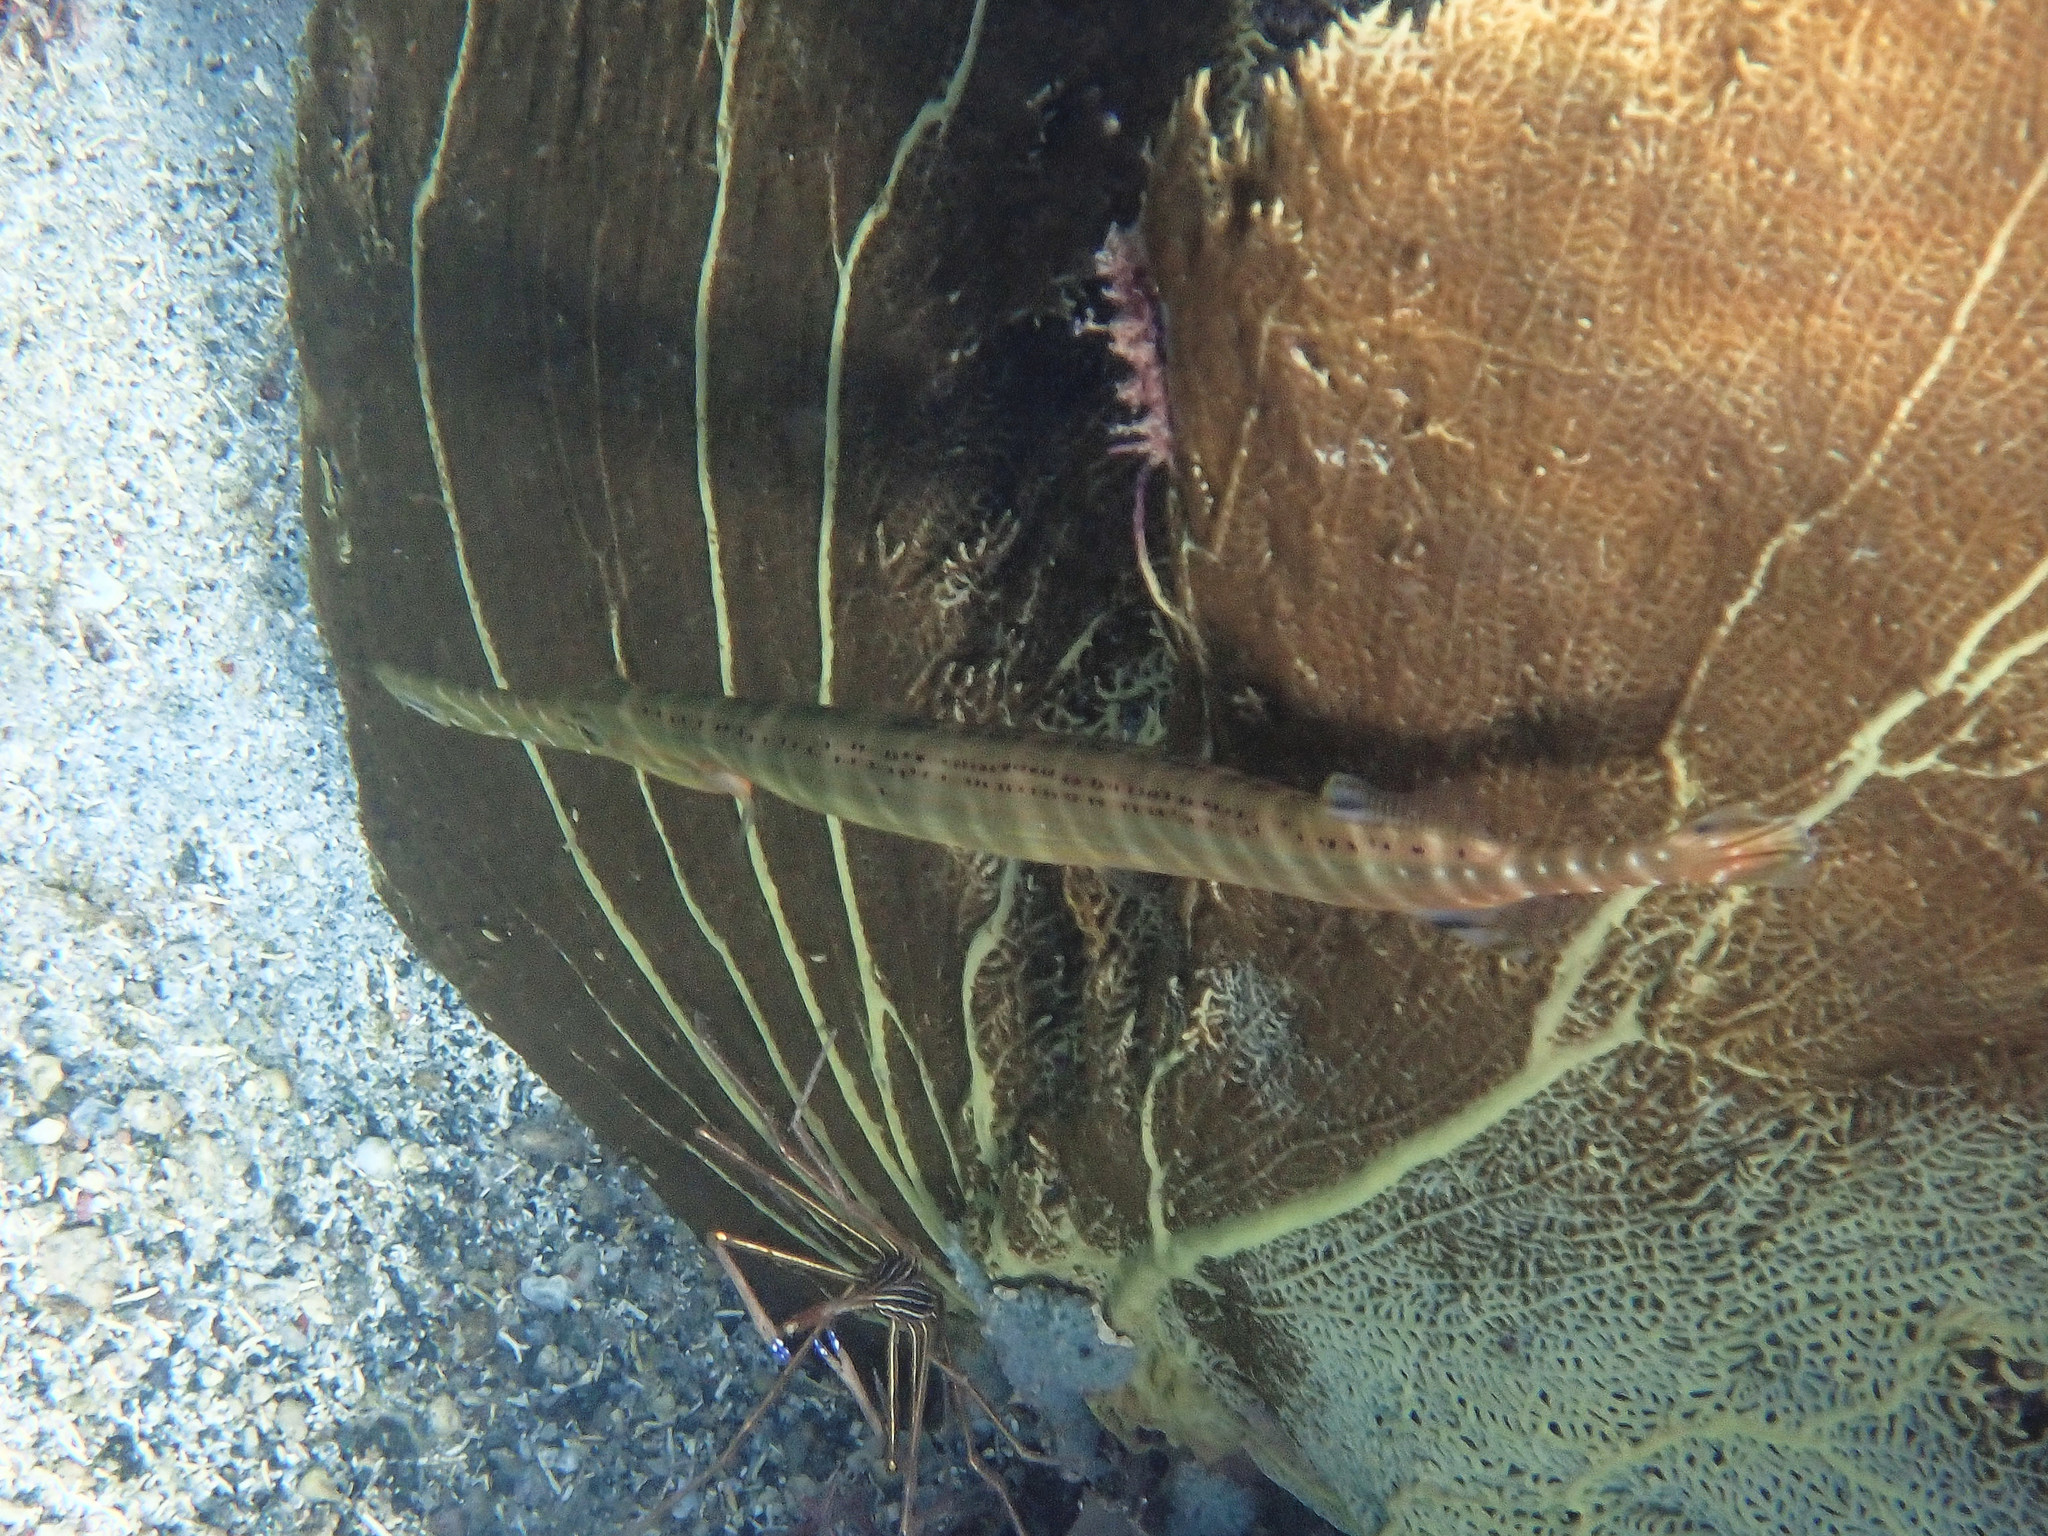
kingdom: Animalia
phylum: Chordata
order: Syngnathiformes
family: Aulostomidae
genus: Aulostomus
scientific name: Aulostomus maculatus
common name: West atlantic trumpetfish
